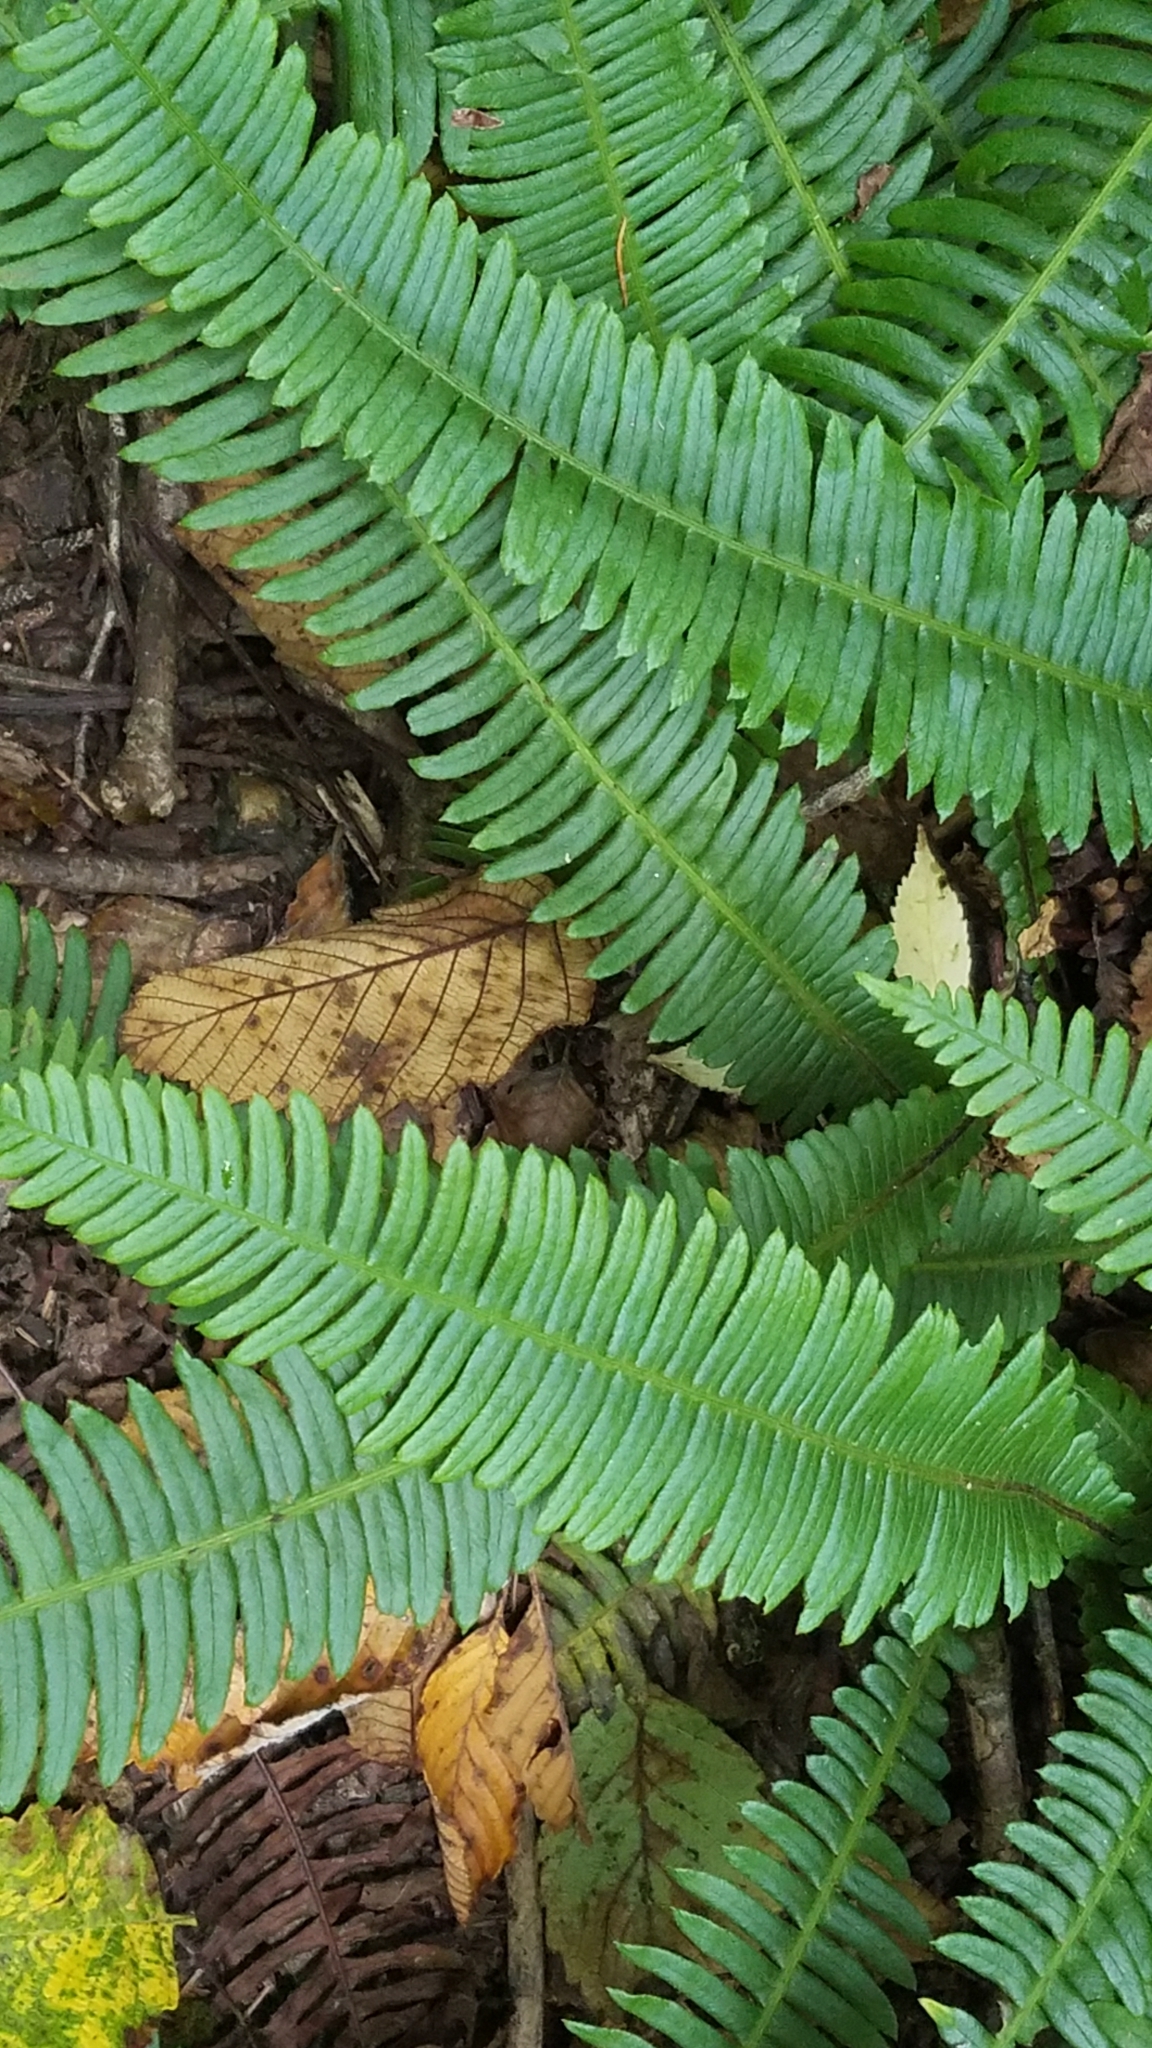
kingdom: Plantae
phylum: Tracheophyta
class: Polypodiopsida
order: Polypodiales
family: Blechnaceae
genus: Struthiopteris
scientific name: Struthiopteris spicant
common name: Deer fern
